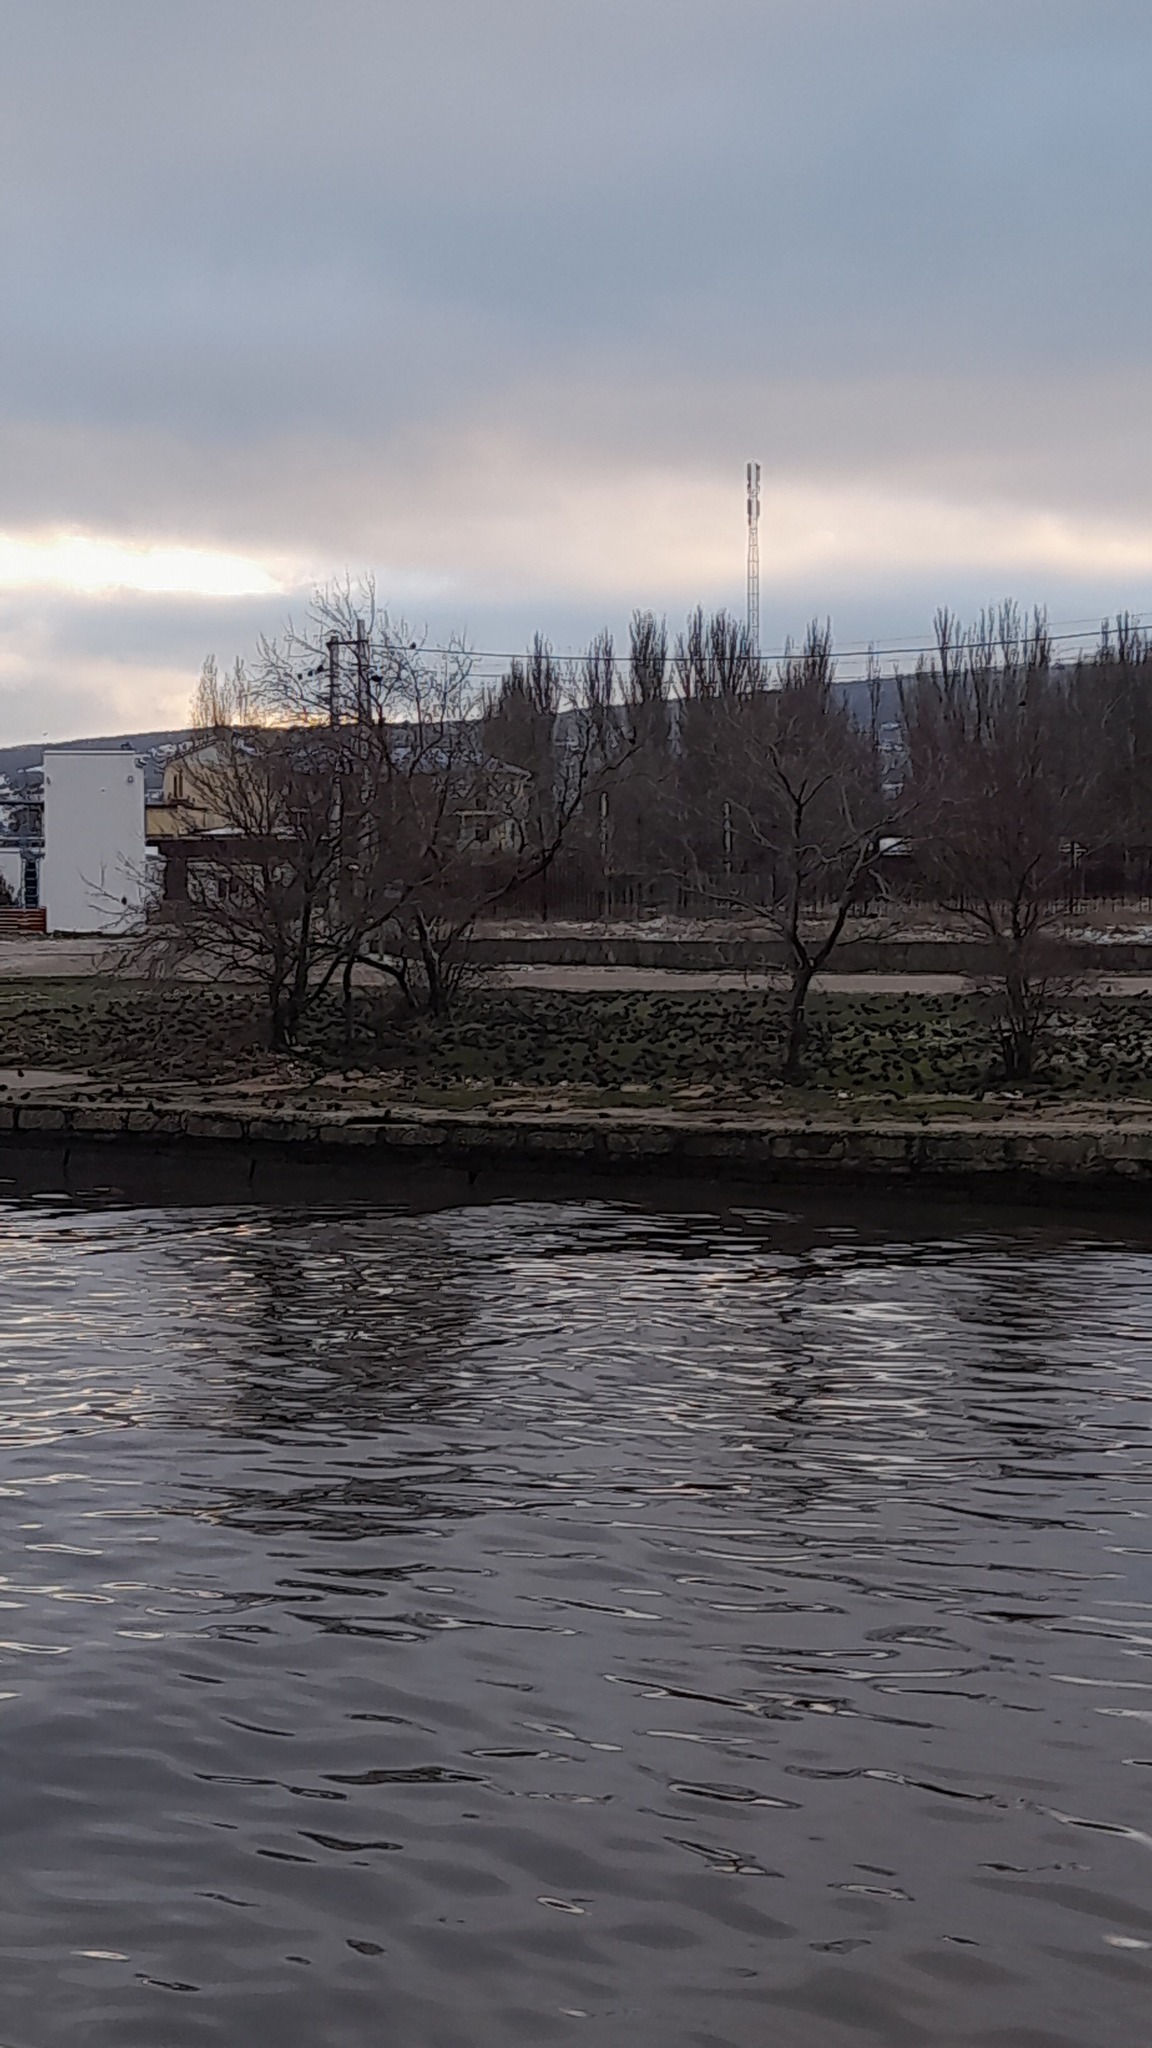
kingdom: Animalia
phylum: Chordata
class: Aves
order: Passeriformes
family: Sturnidae
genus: Sturnus
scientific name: Sturnus vulgaris
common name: Common starling
